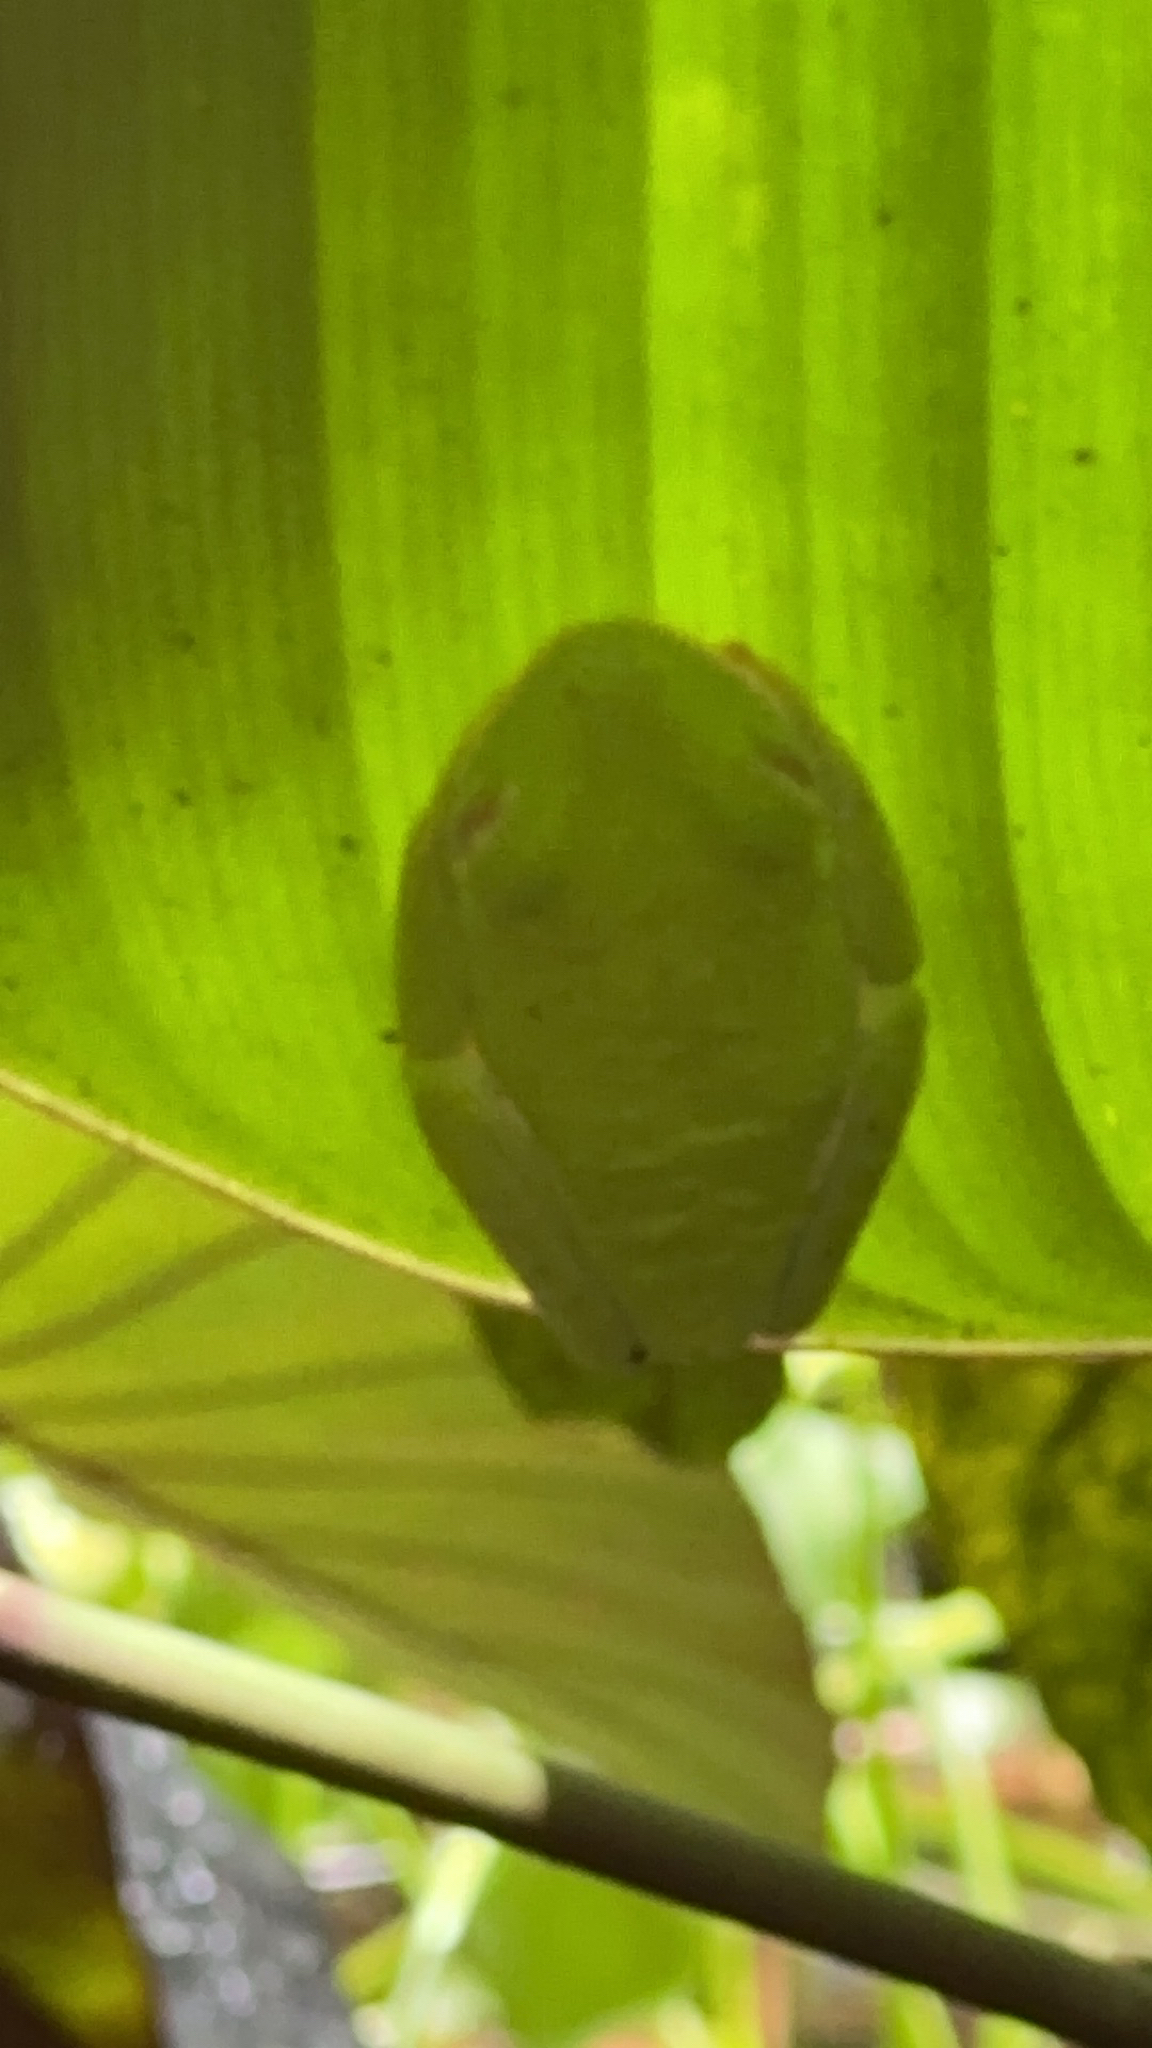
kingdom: Animalia
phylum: Chordata
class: Amphibia
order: Anura
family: Phyllomedusidae
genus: Agalychnis
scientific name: Agalychnis callidryas
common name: Red-eyed treefrog
